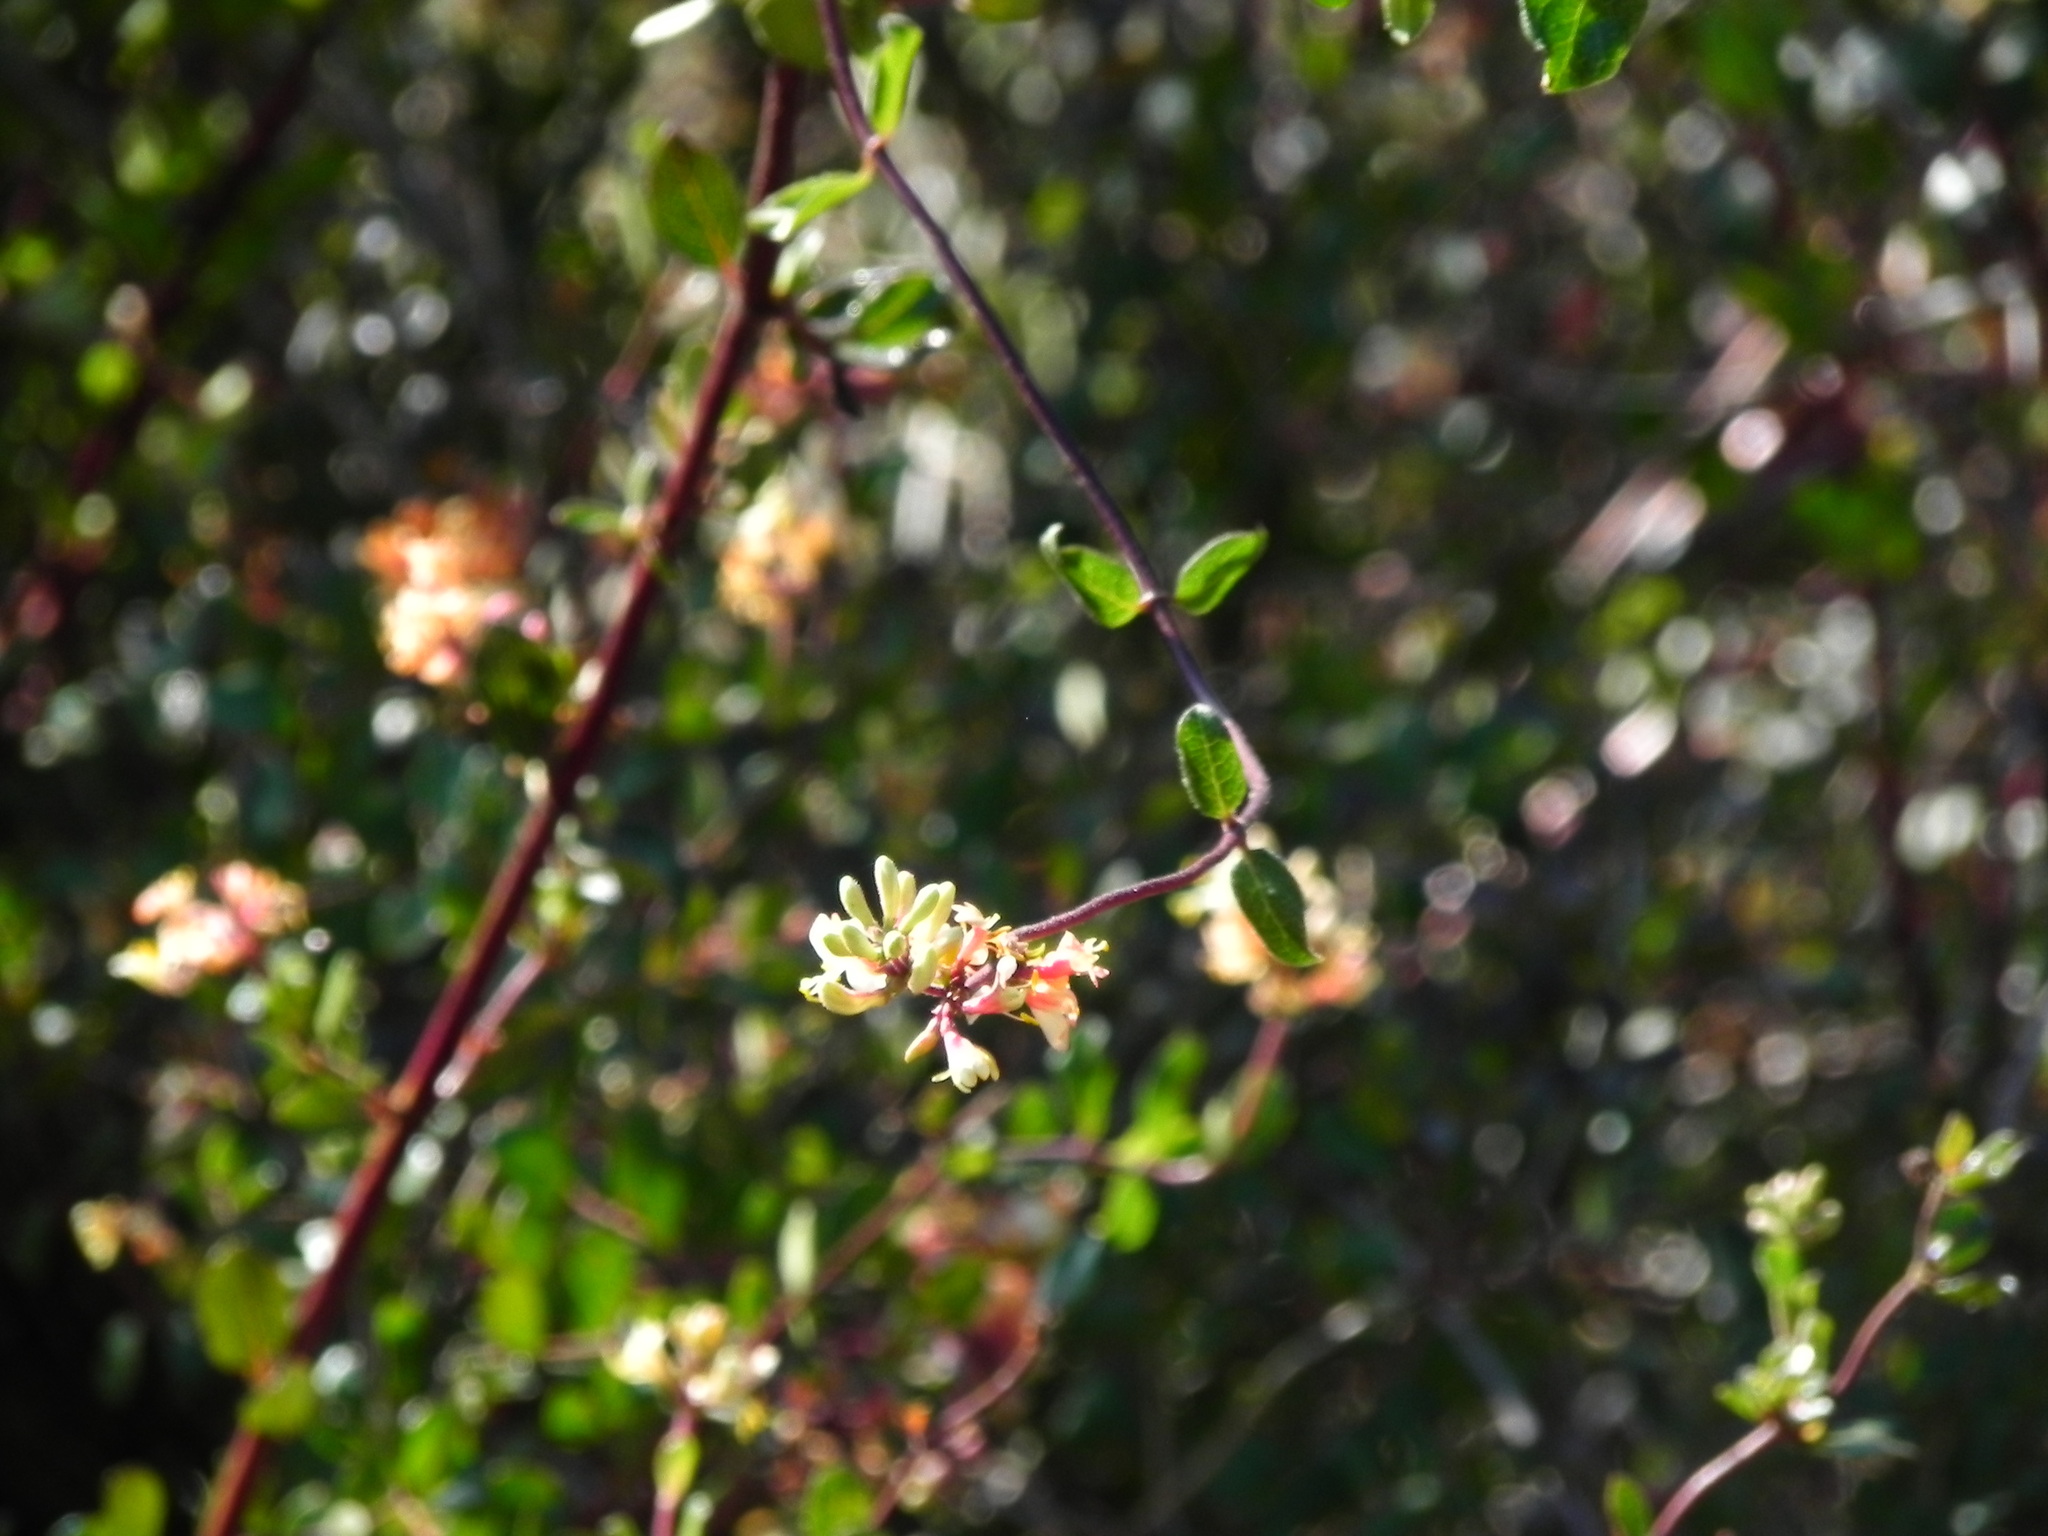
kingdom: Plantae
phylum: Tracheophyta
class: Magnoliopsida
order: Dipsacales
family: Caprifoliaceae
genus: Lonicera
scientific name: Lonicera subspicata
